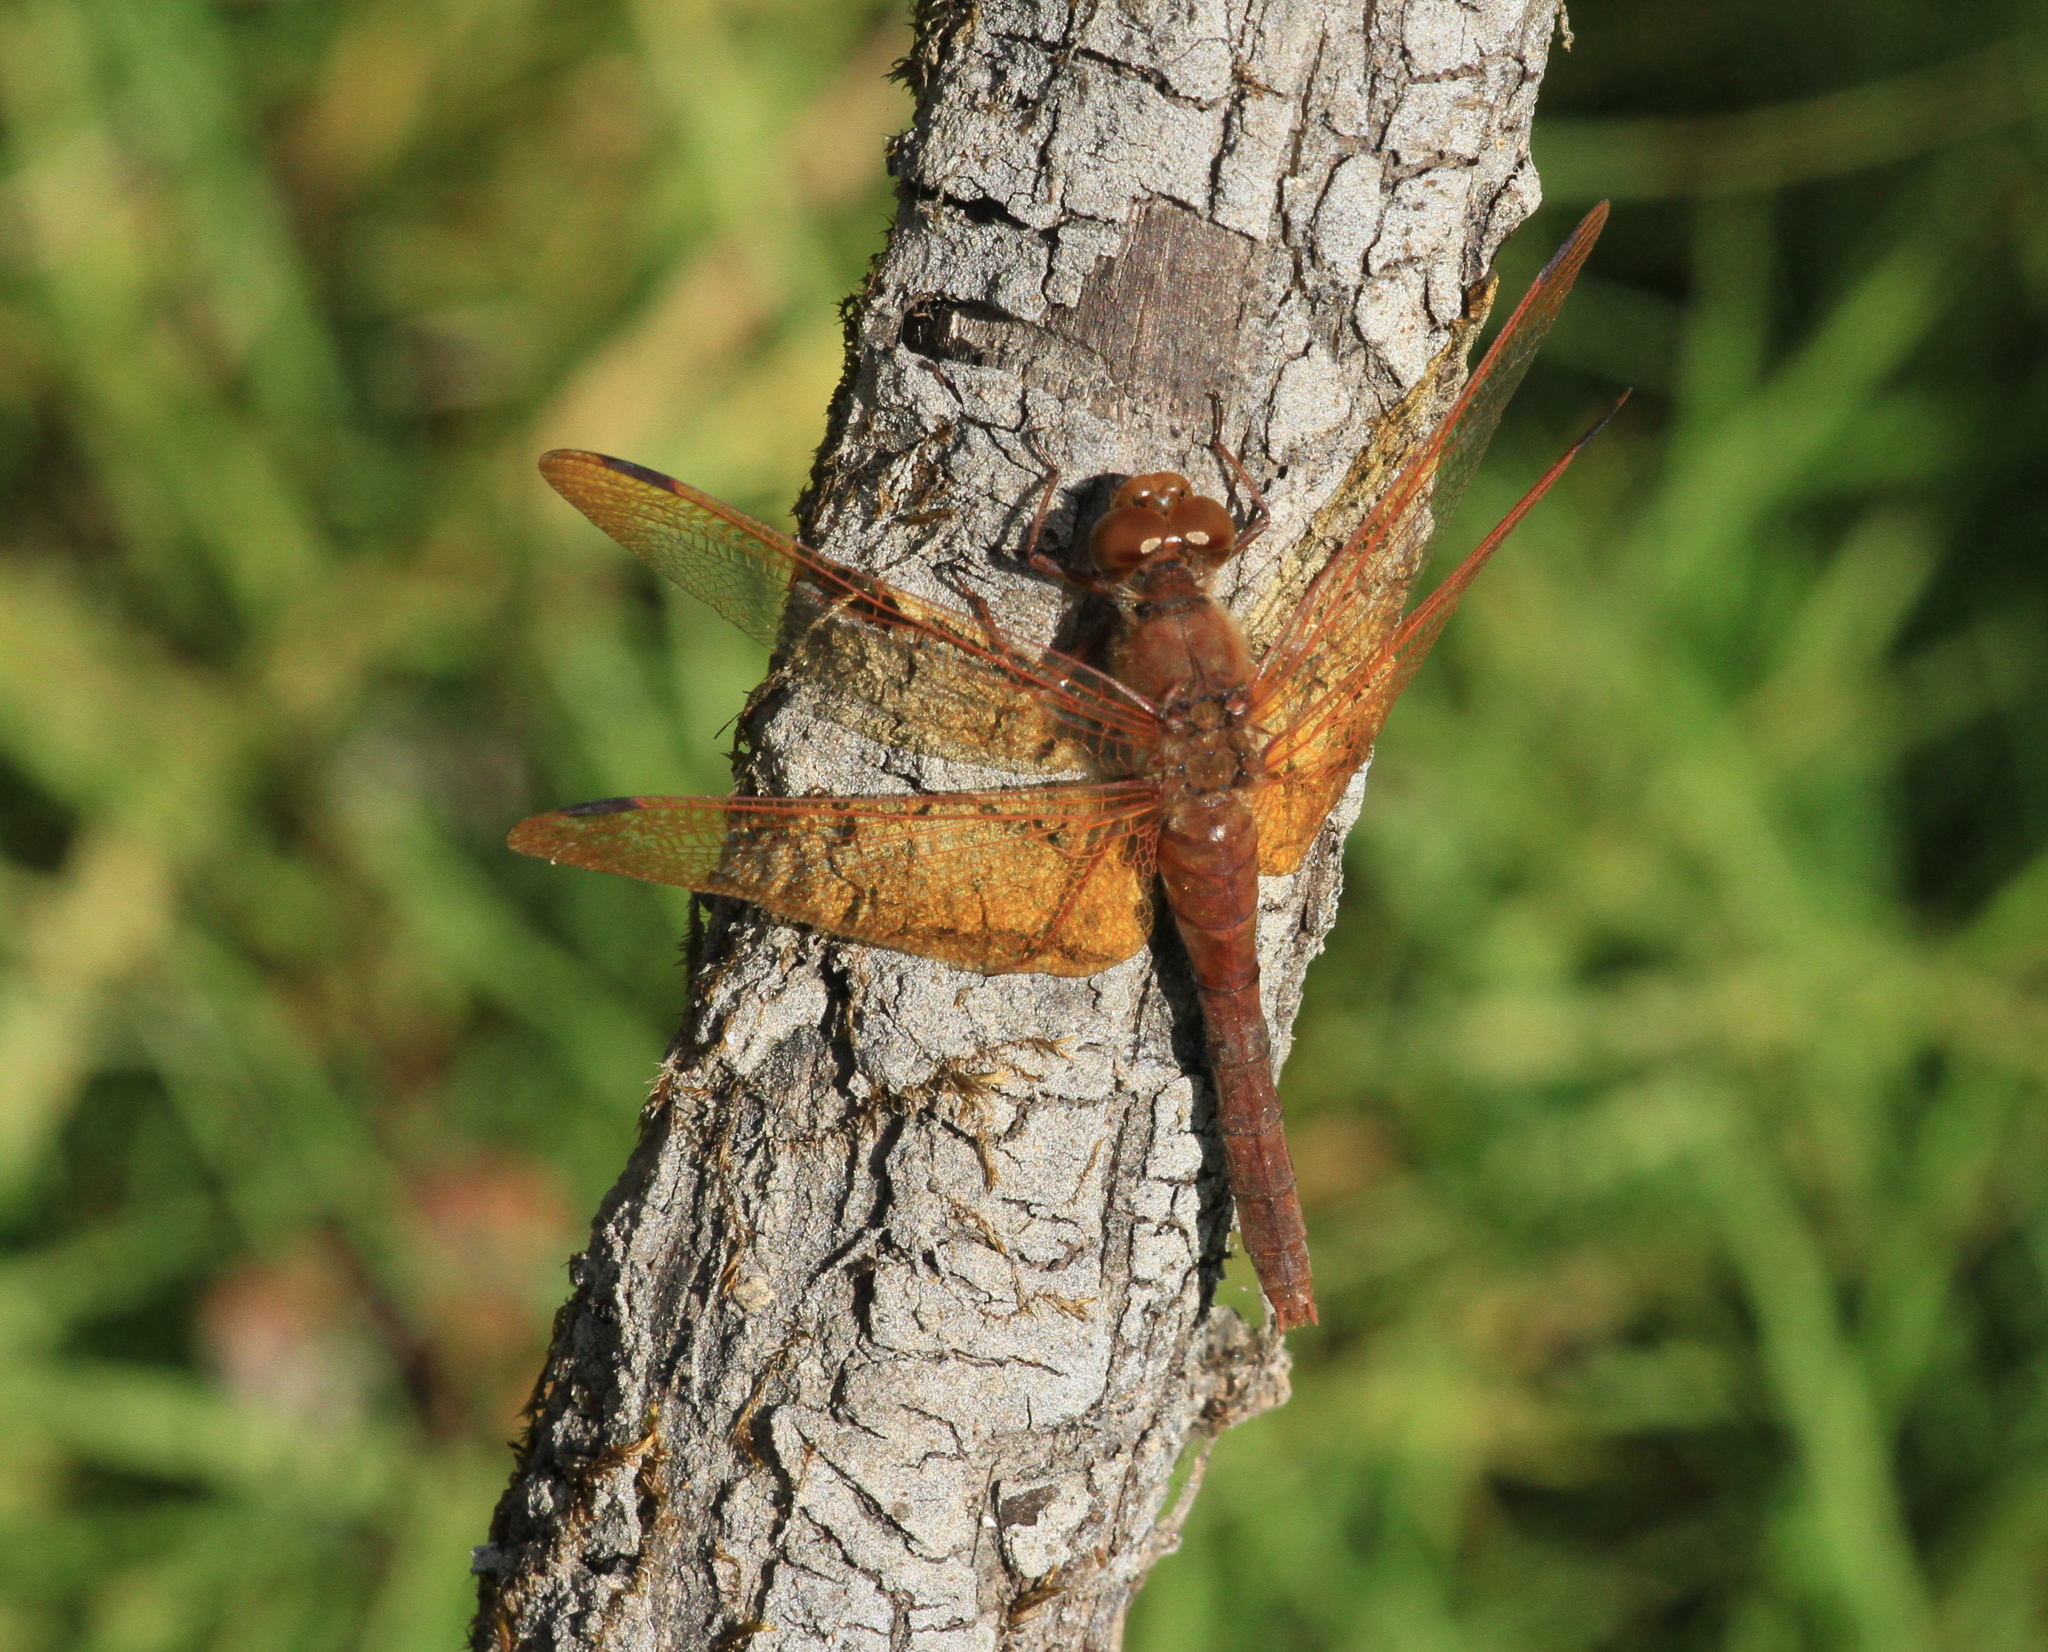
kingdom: Animalia
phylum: Arthropoda
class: Insecta
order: Odonata
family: Libellulidae
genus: Sympetrum
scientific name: Sympetrum croceolum
